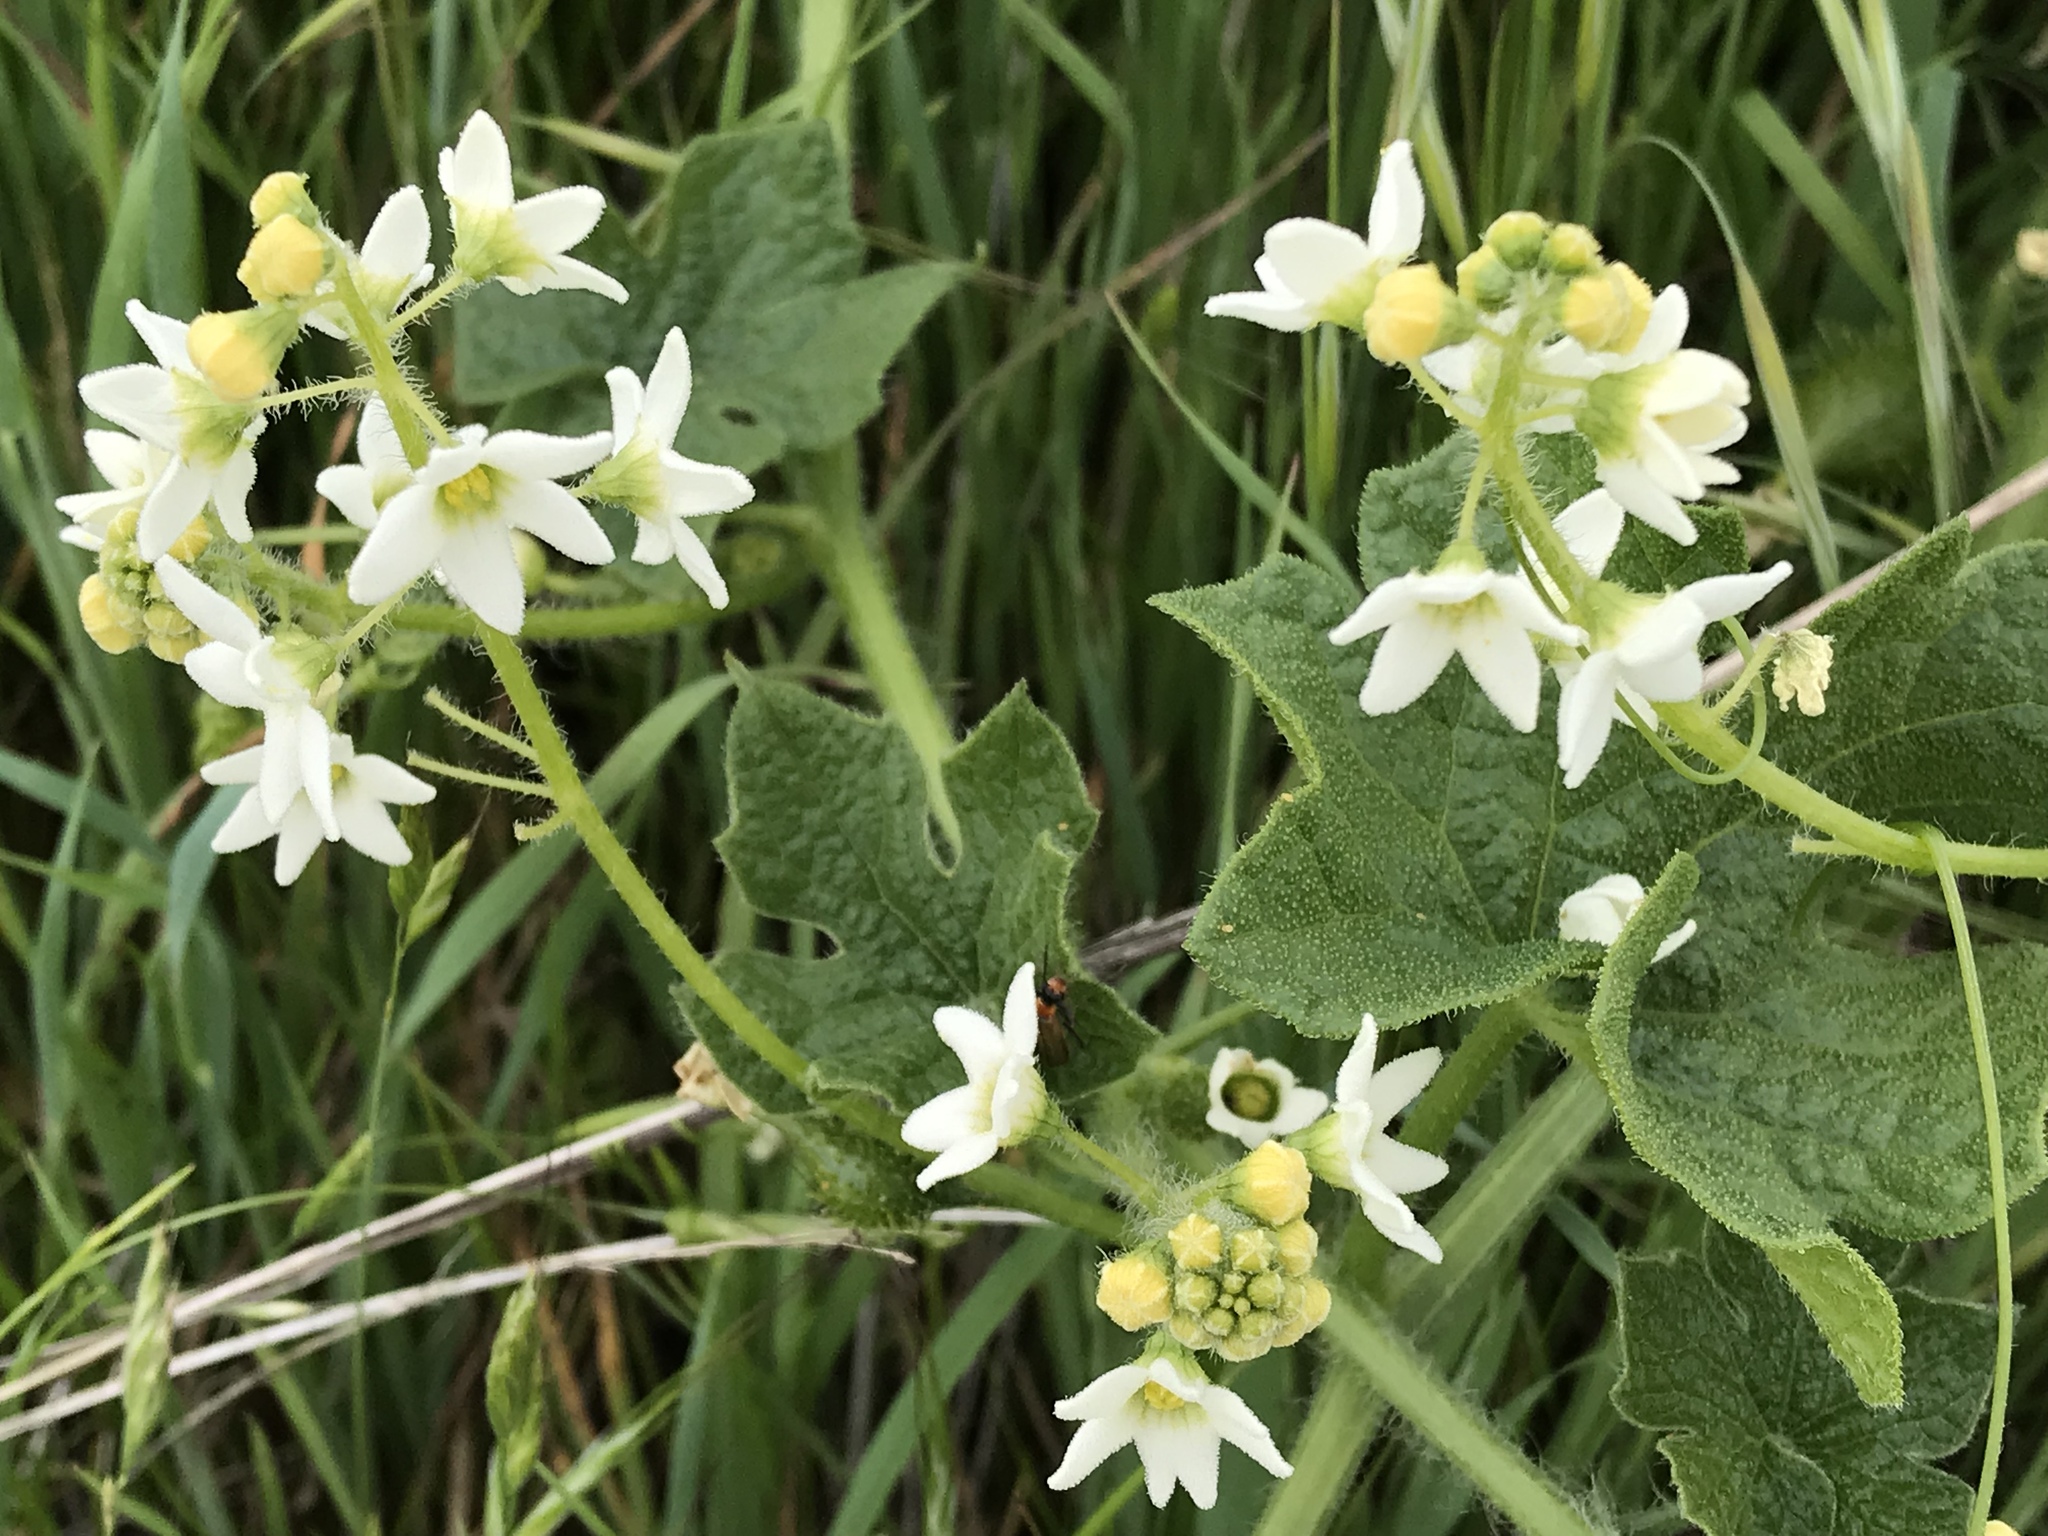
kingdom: Plantae
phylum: Tracheophyta
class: Magnoliopsida
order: Cucurbitales
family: Cucurbitaceae
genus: Marah
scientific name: Marah oregana
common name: Coastal manroot
